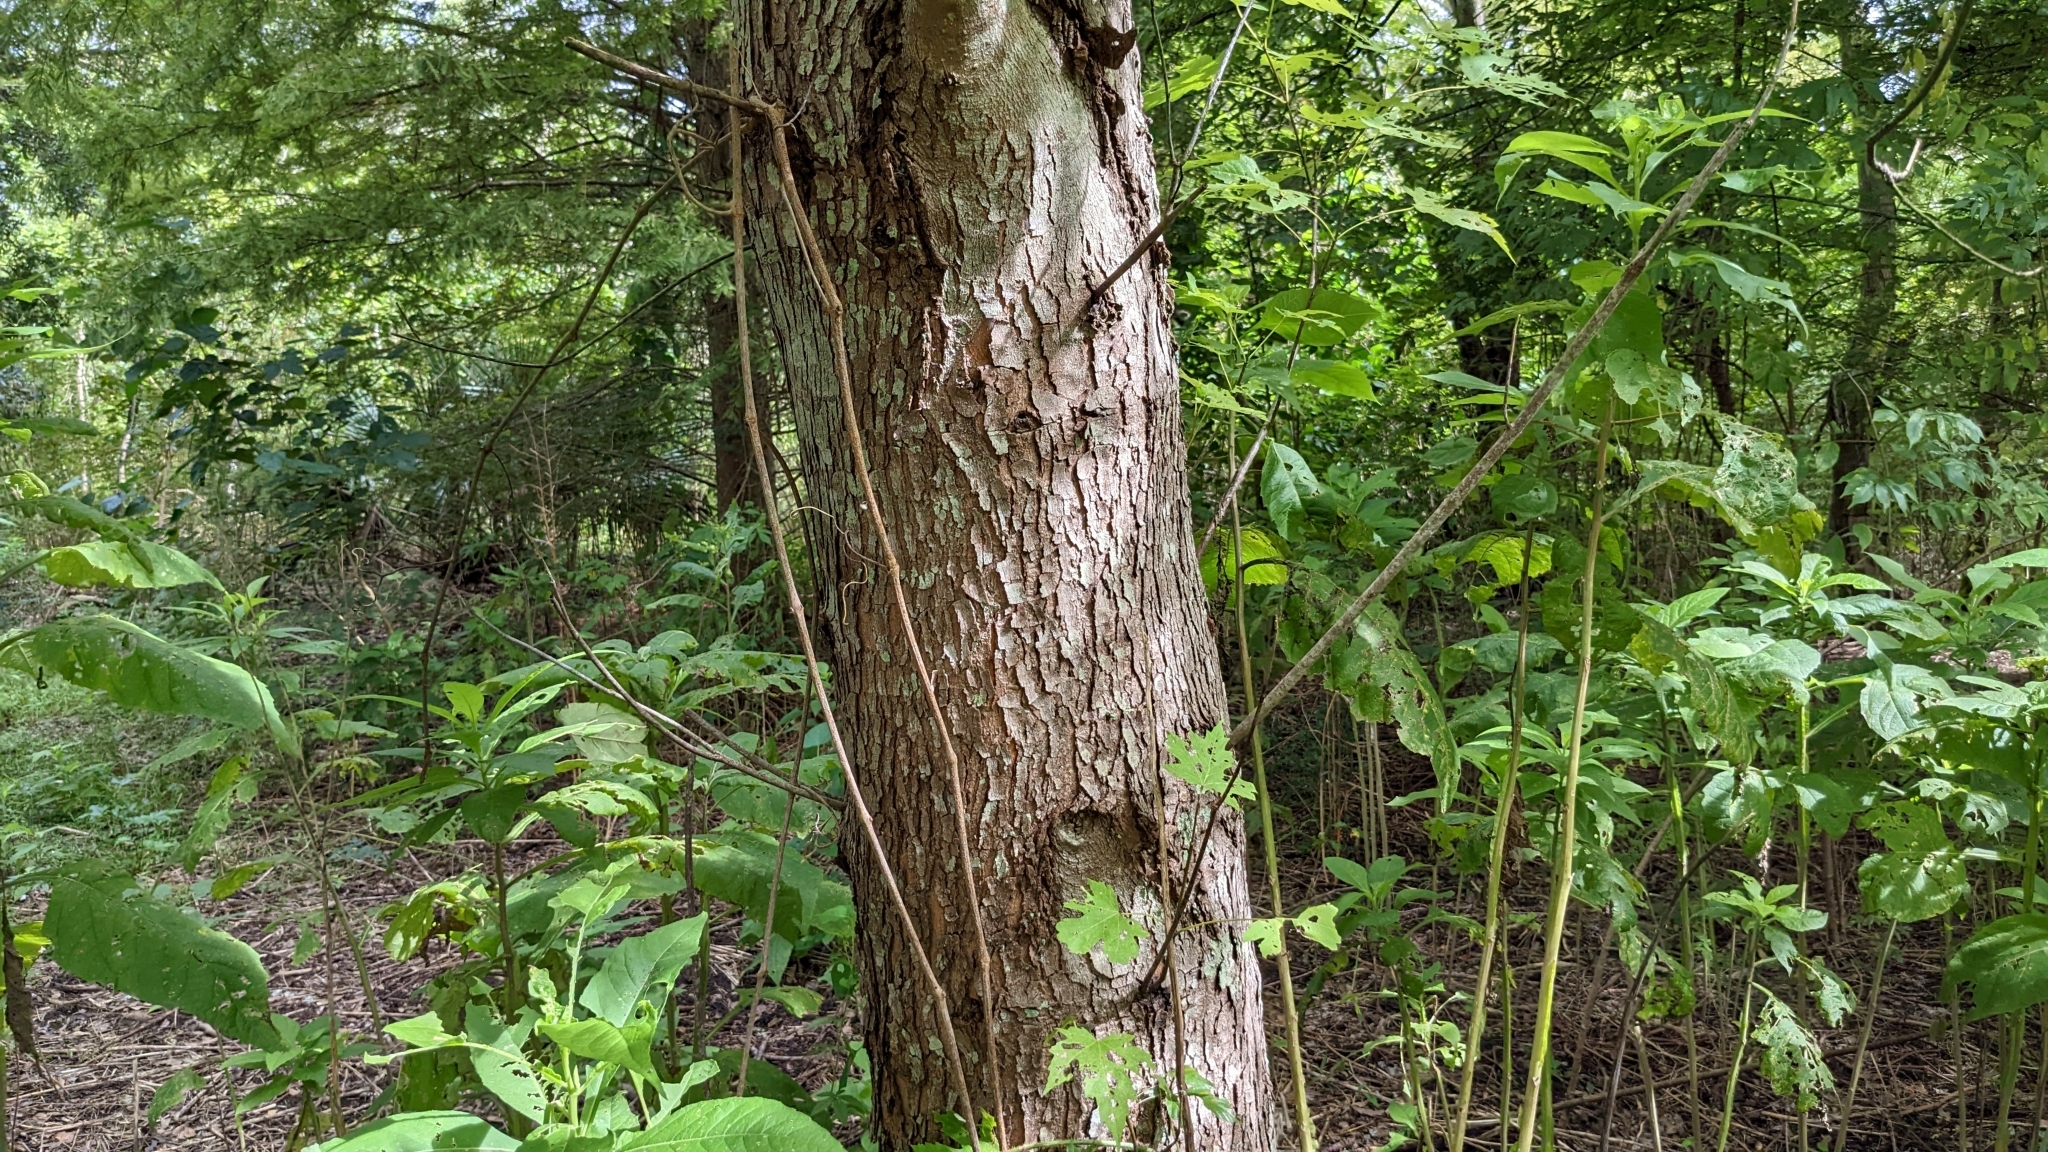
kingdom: Plantae
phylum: Tracheophyta
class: Magnoliopsida
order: Sapindales
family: Sapindaceae
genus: Acer
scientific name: Acer saccharinum
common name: Silver maple
